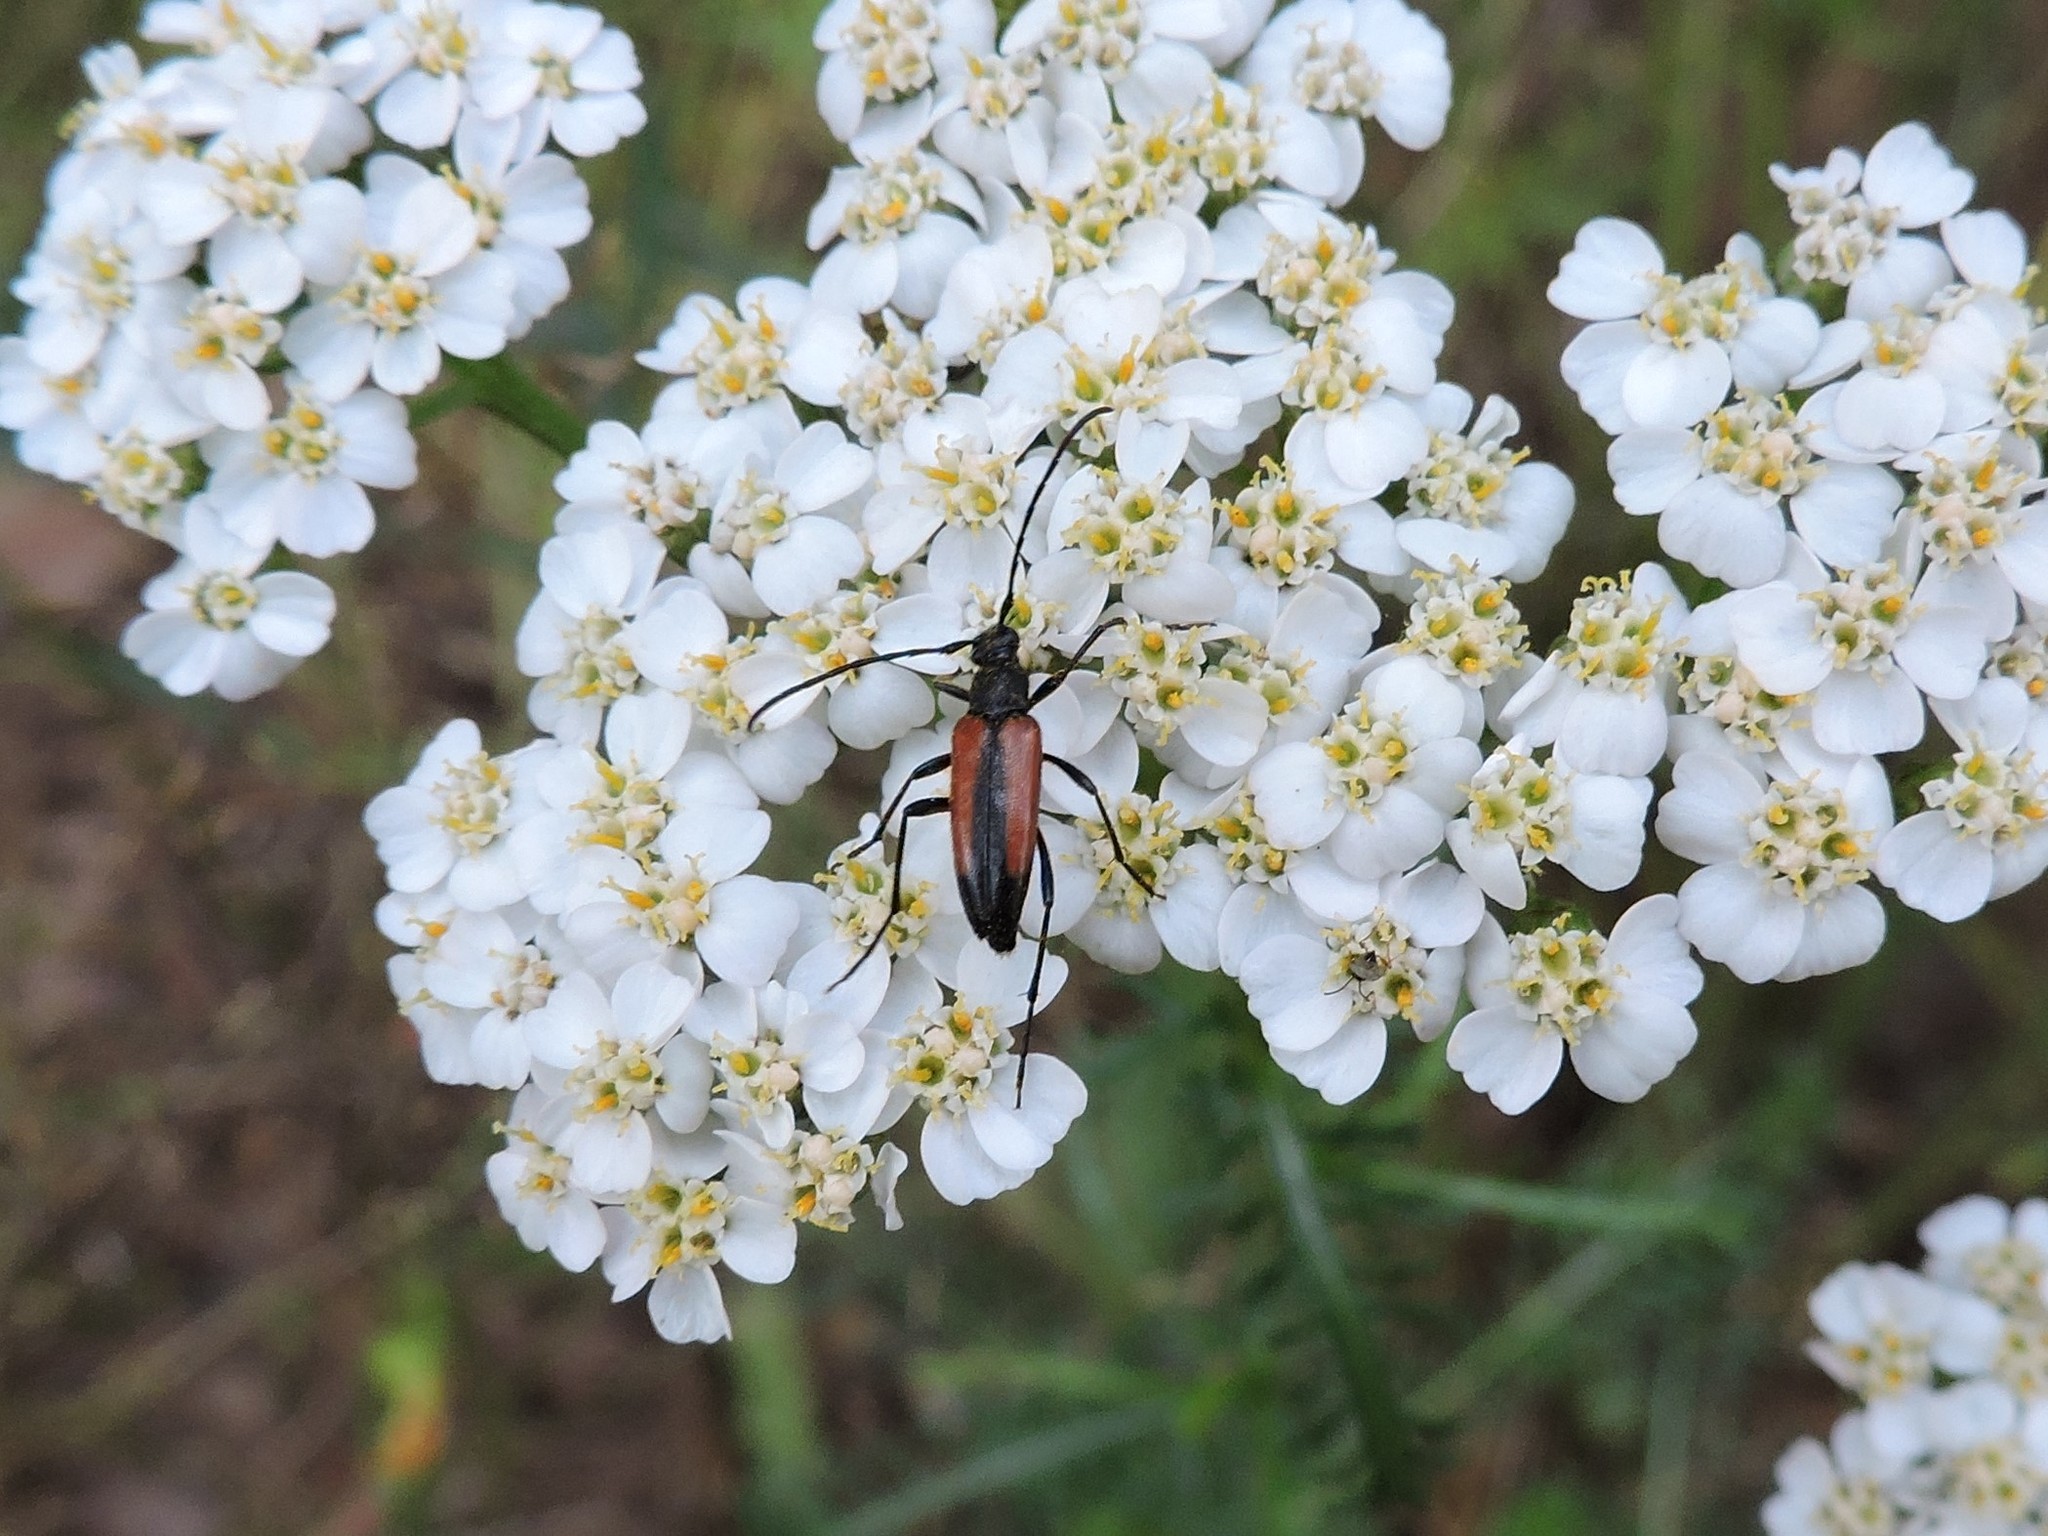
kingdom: Animalia
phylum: Arthropoda
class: Insecta
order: Coleoptera
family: Cerambycidae
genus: Stenurella
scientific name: Stenurella melanura
